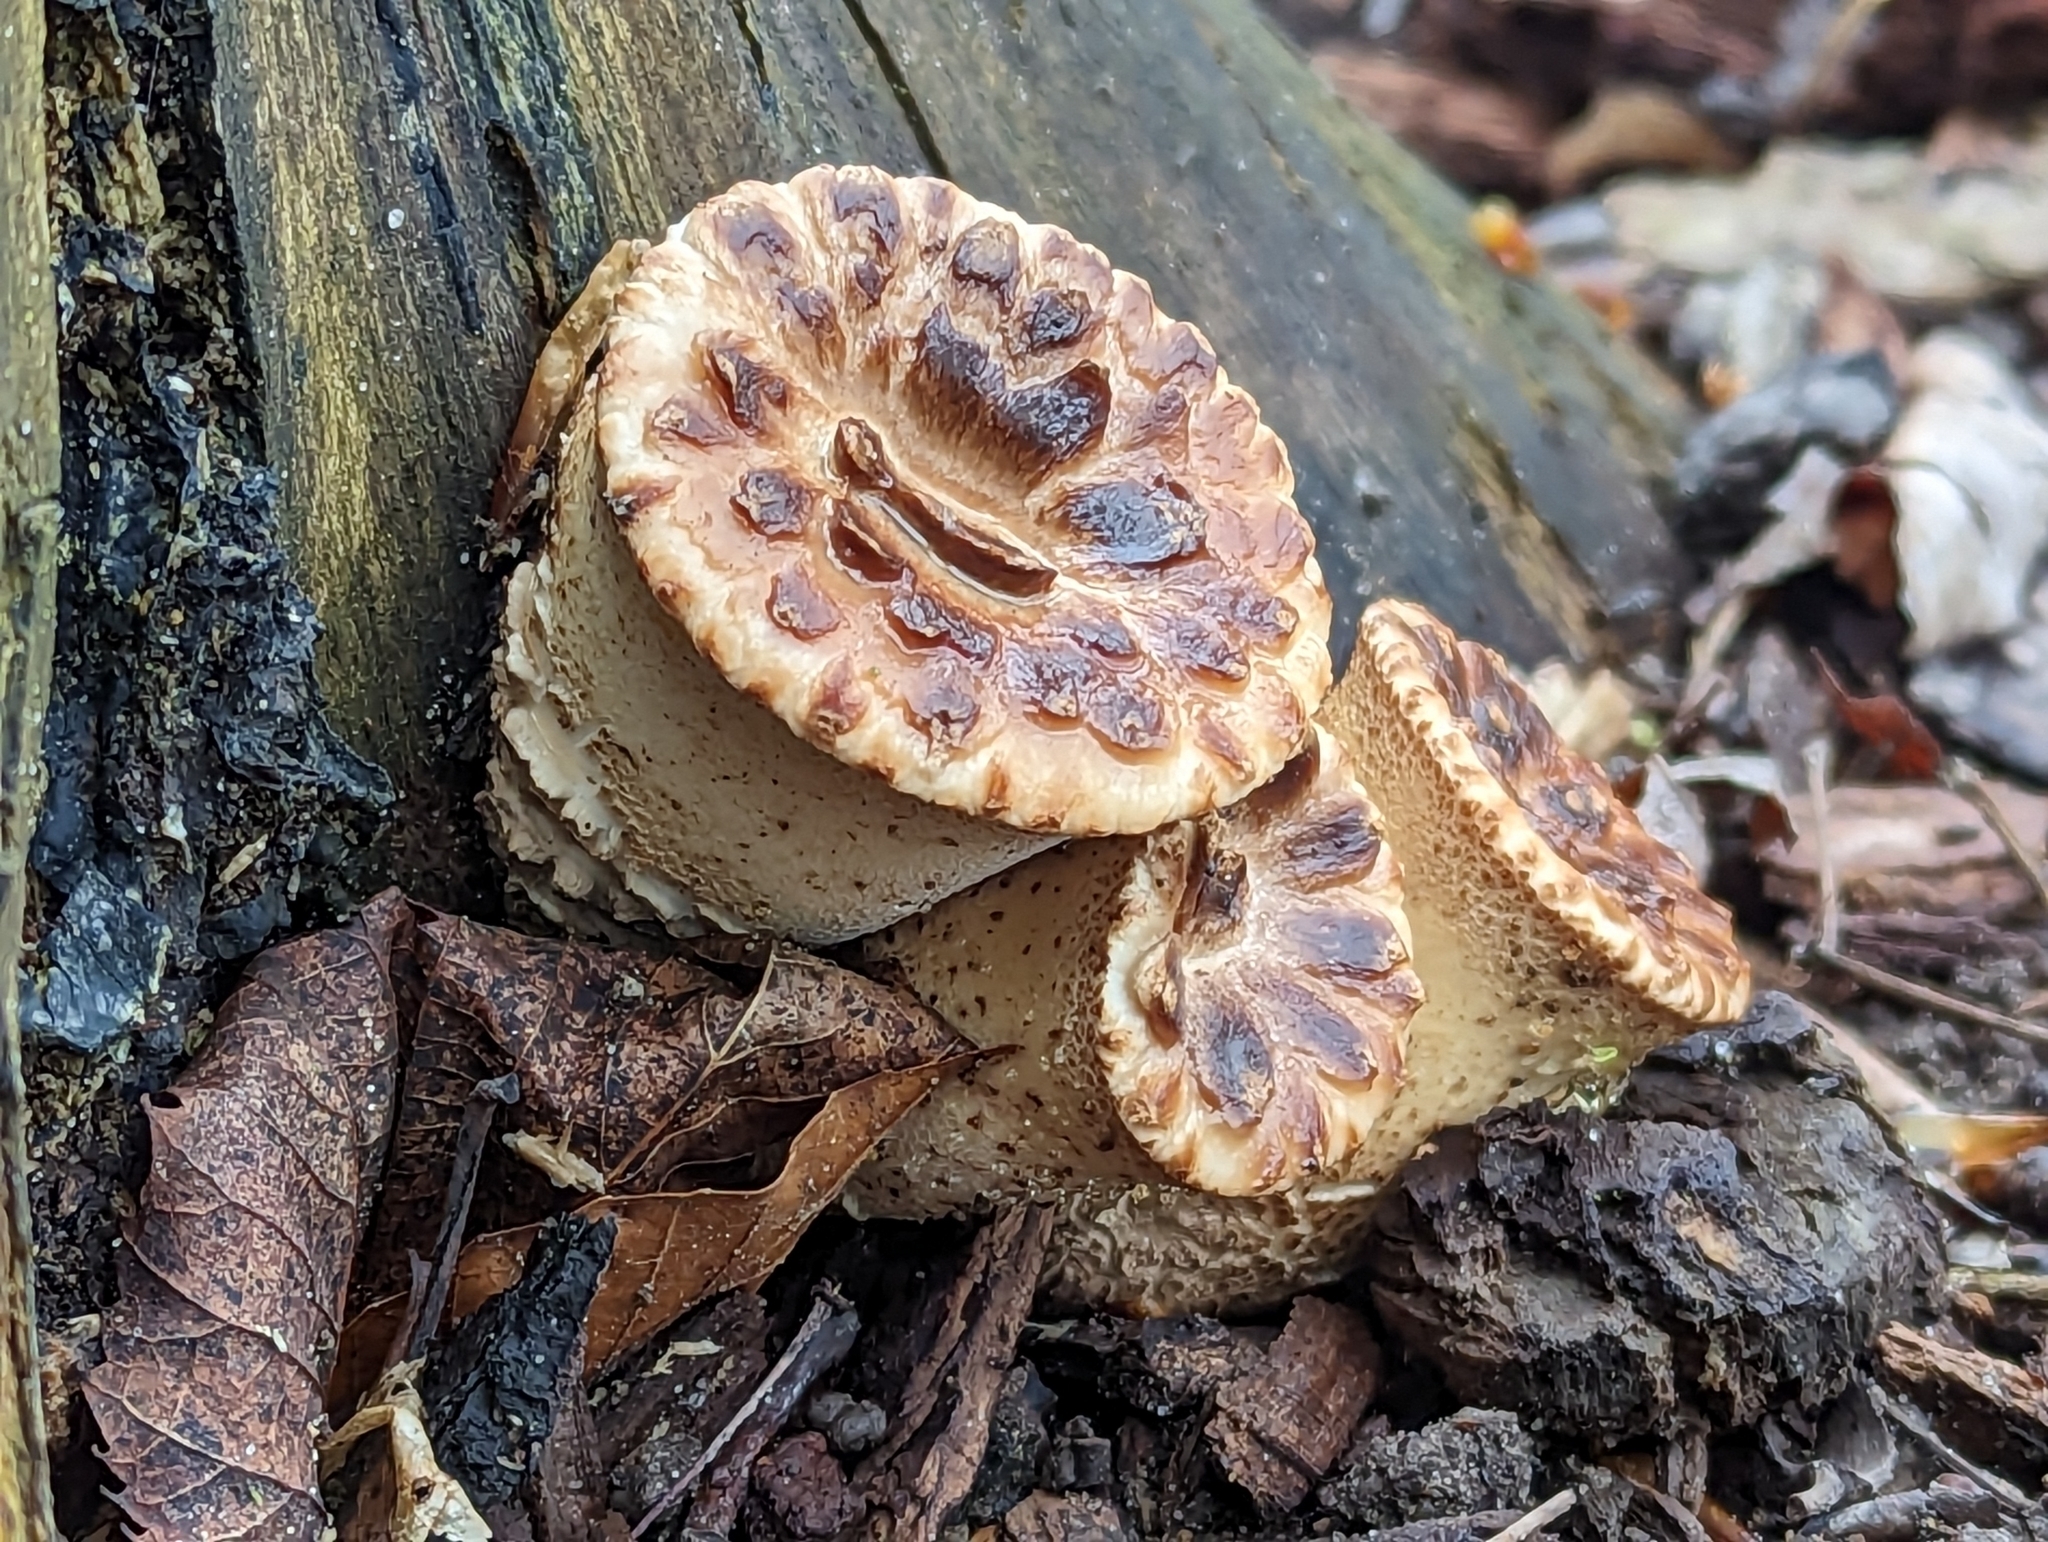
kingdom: Fungi
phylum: Basidiomycota
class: Agaricomycetes
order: Polyporales
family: Polyporaceae
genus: Cerioporus
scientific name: Cerioporus squamosus
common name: Dryad's saddle
